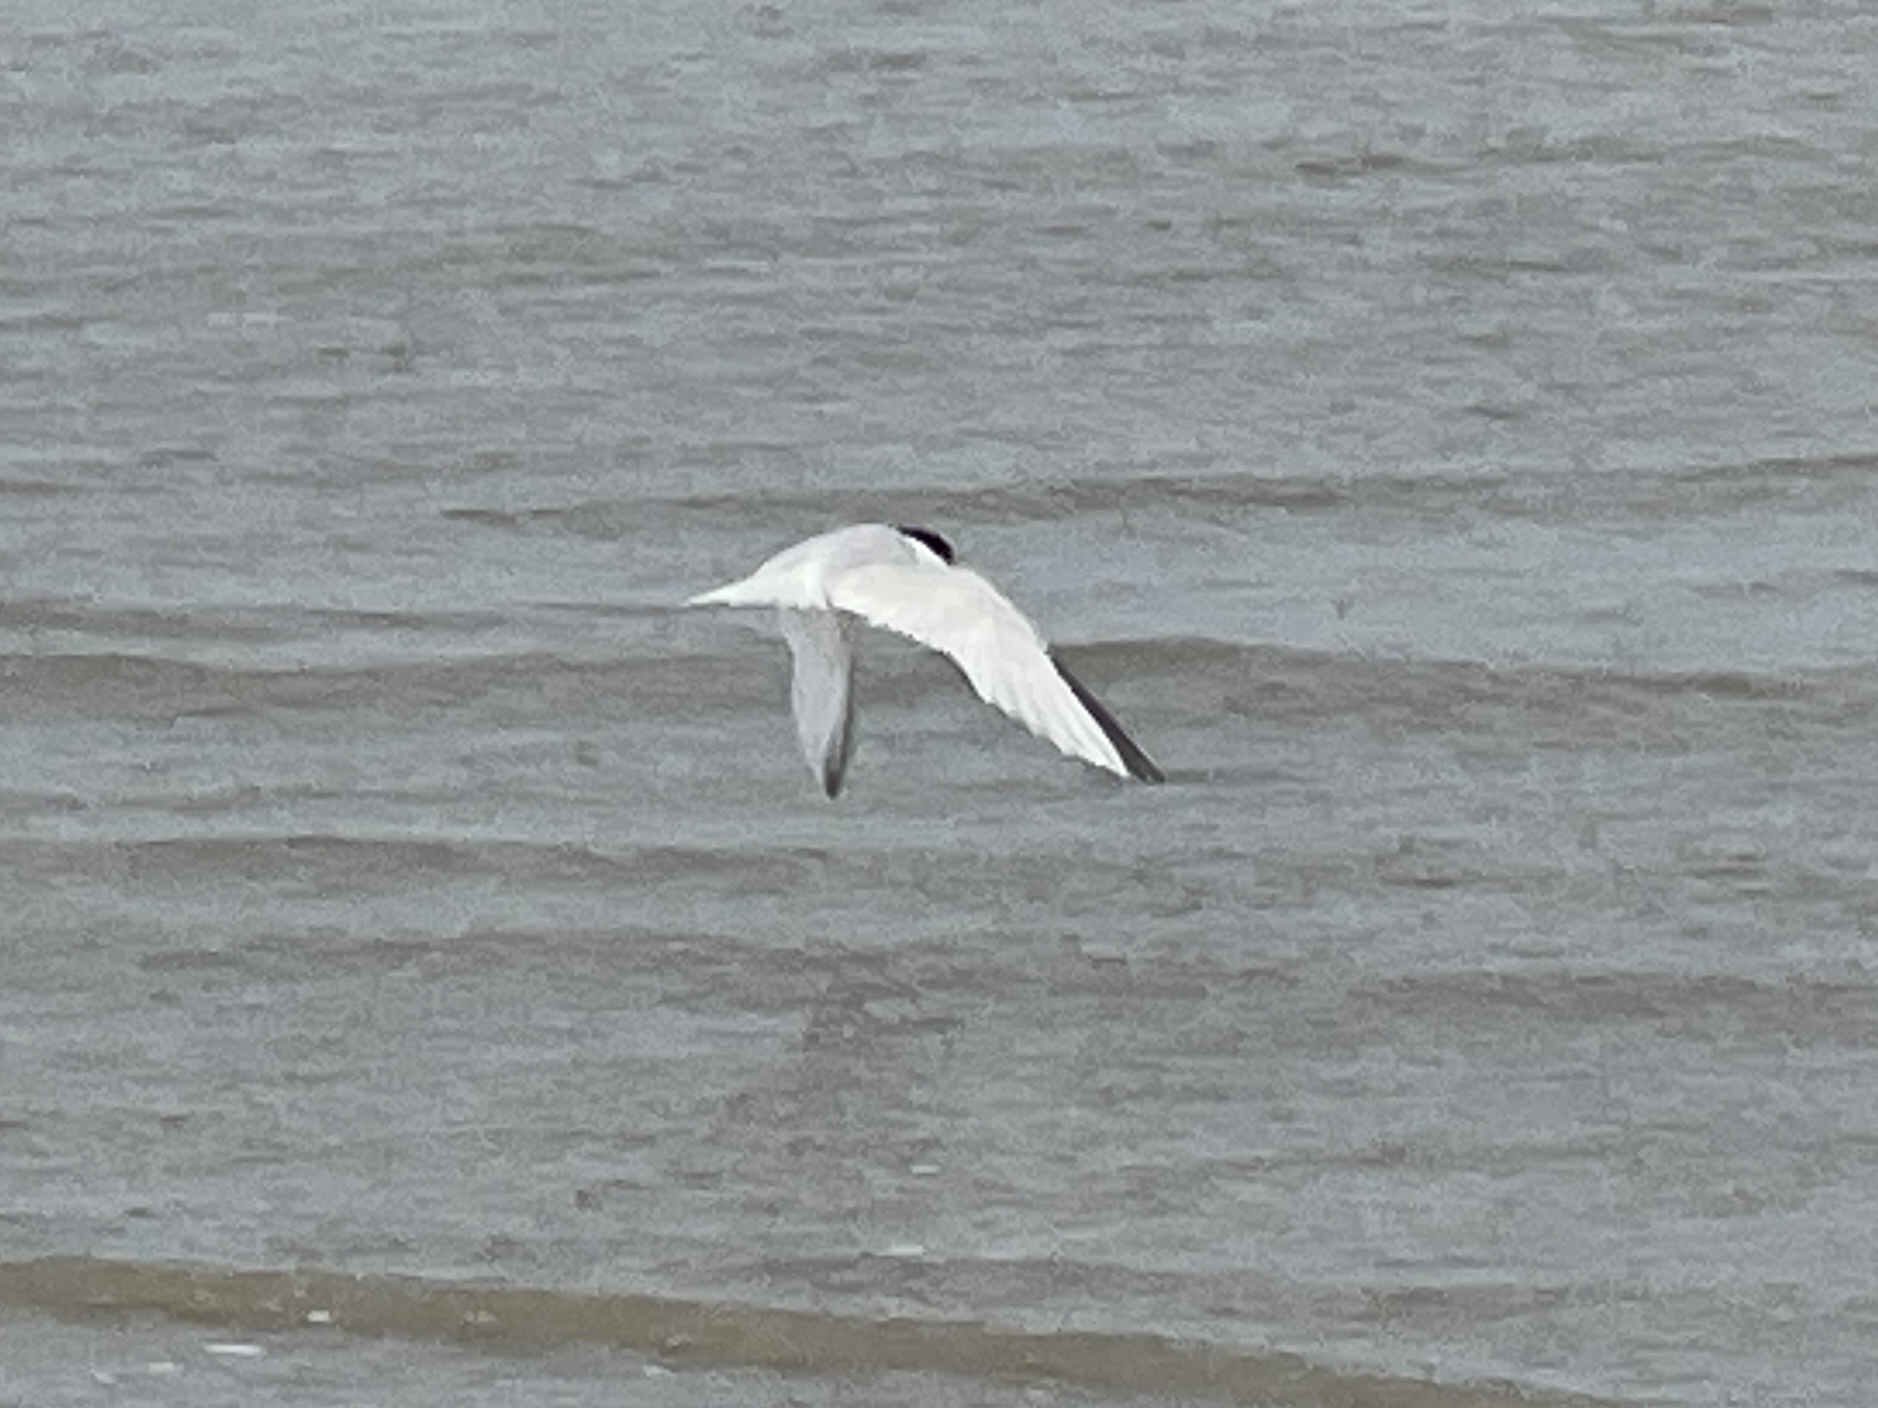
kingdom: Animalia
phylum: Chordata
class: Aves
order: Charadriiformes
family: Laridae
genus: Sternula
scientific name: Sternula antillarum
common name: Least tern
